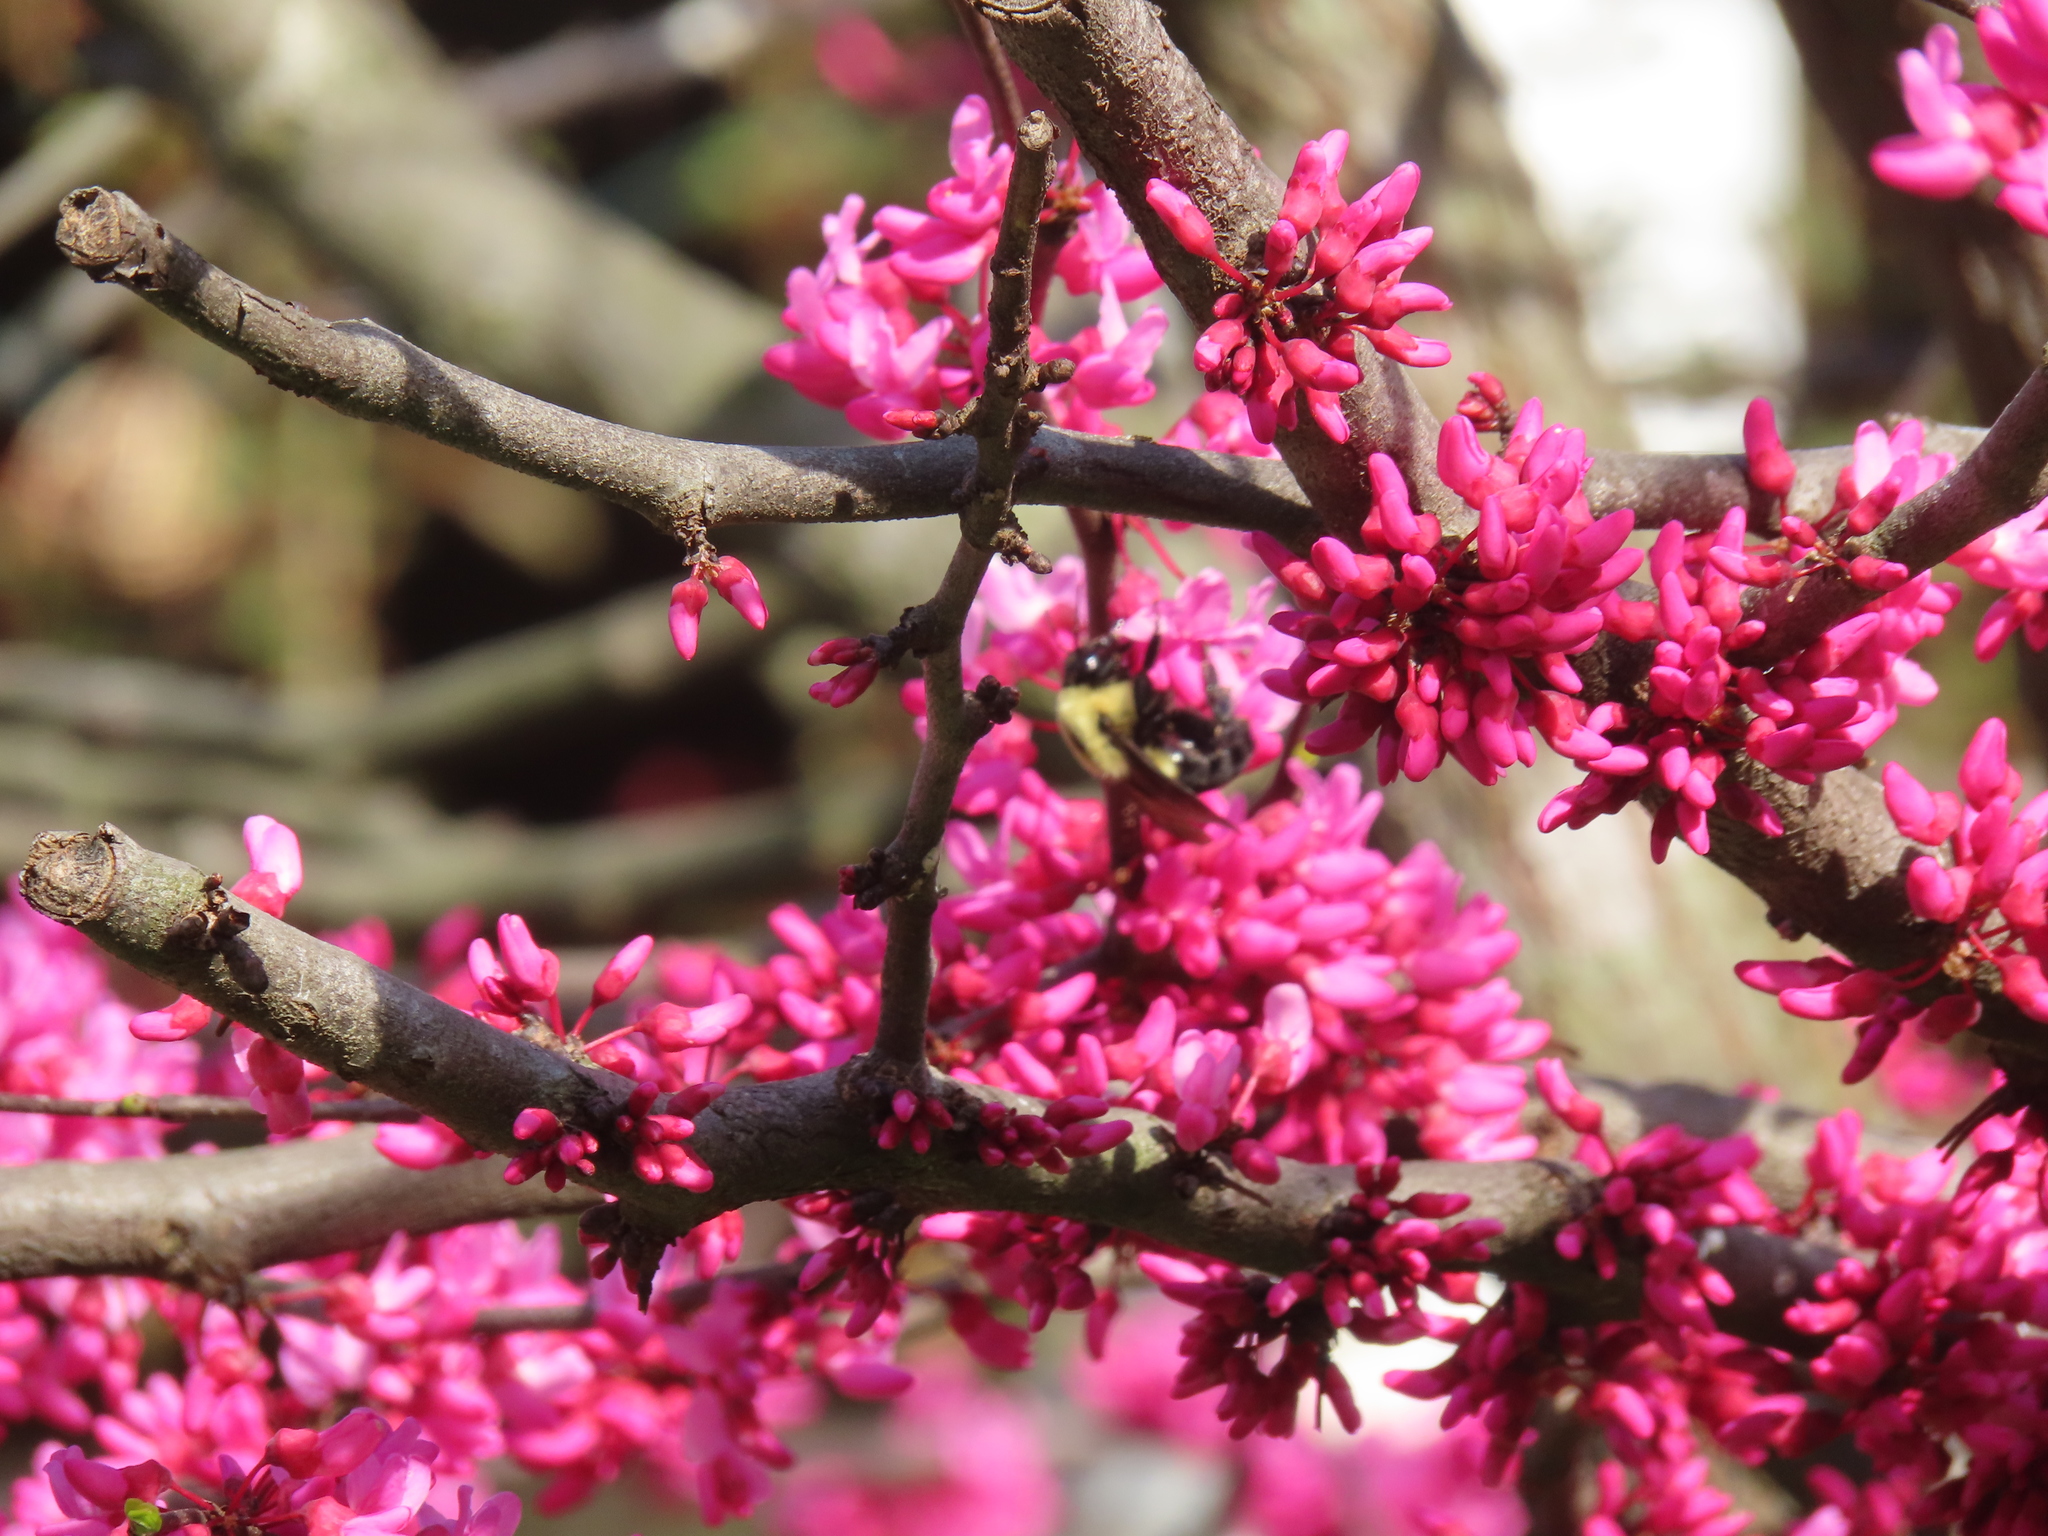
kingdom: Animalia
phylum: Arthropoda
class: Insecta
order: Hymenoptera
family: Apidae
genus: Bombus
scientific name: Bombus griseocollis
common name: Brown-belted bumble bee
